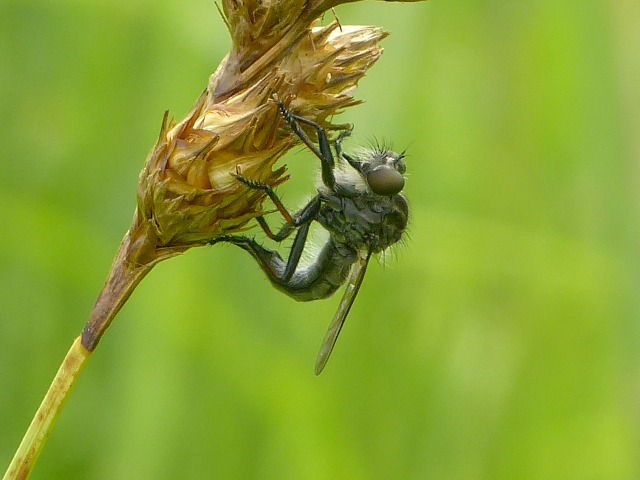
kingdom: Animalia
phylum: Arthropoda
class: Insecta
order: Diptera
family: Asilidae
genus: Efferia
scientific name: Efferia aestuans
